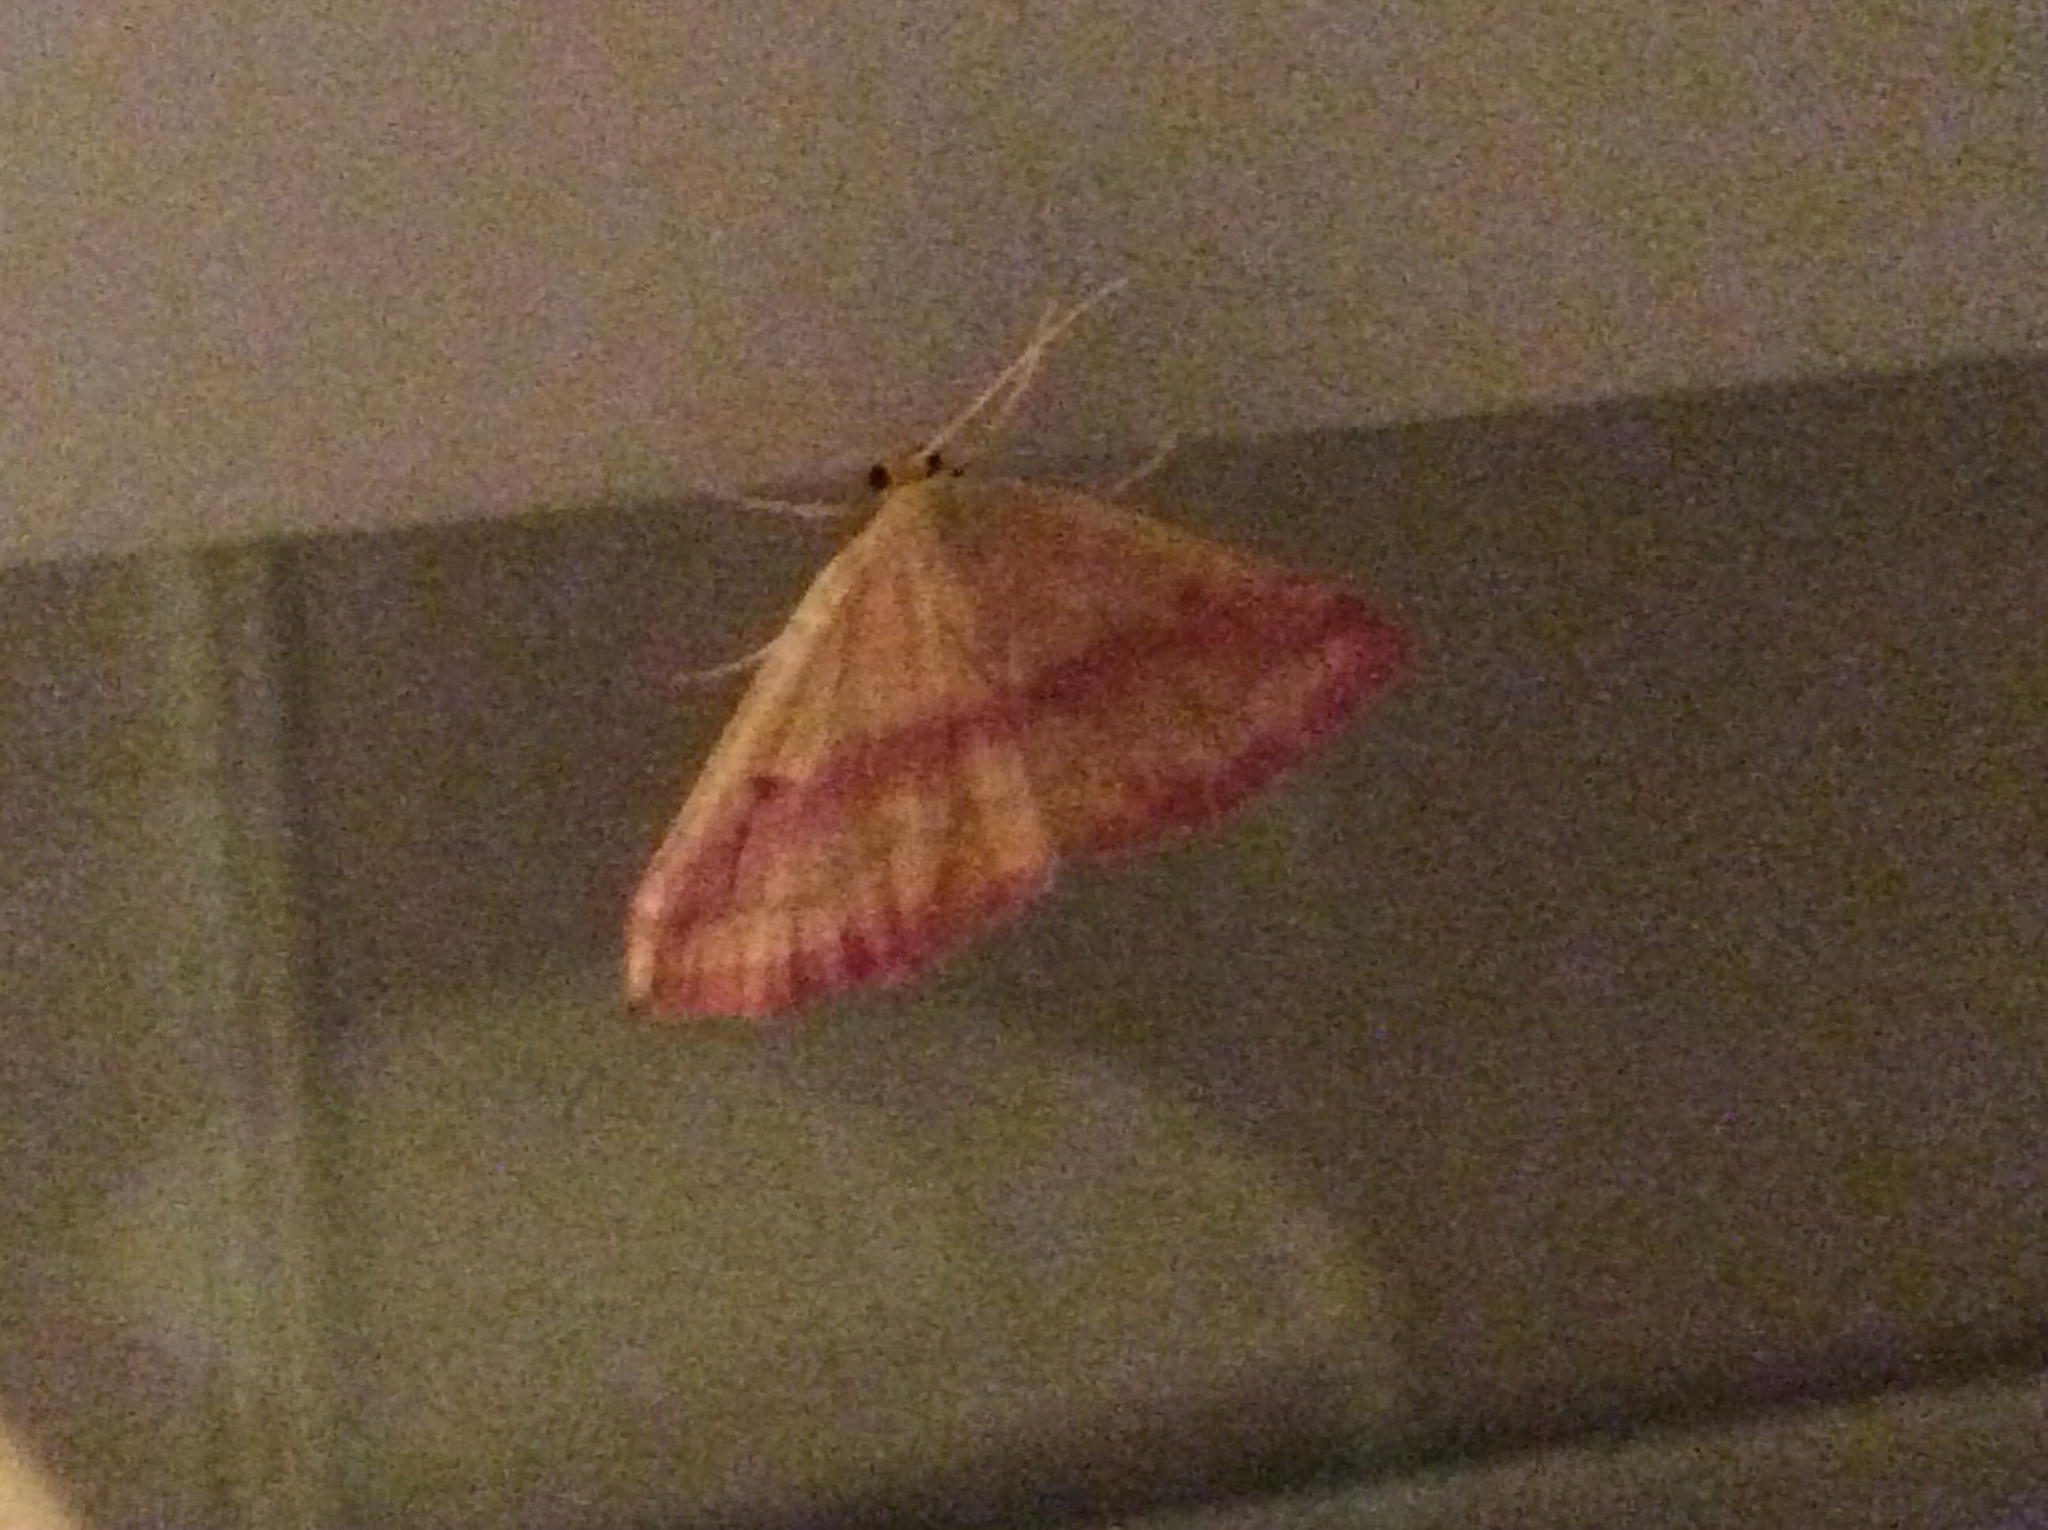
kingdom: Animalia
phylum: Arthropoda
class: Insecta
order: Lepidoptera
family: Geometridae
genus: Haematopis
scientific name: Haematopis grataria
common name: Chickweed geometer
